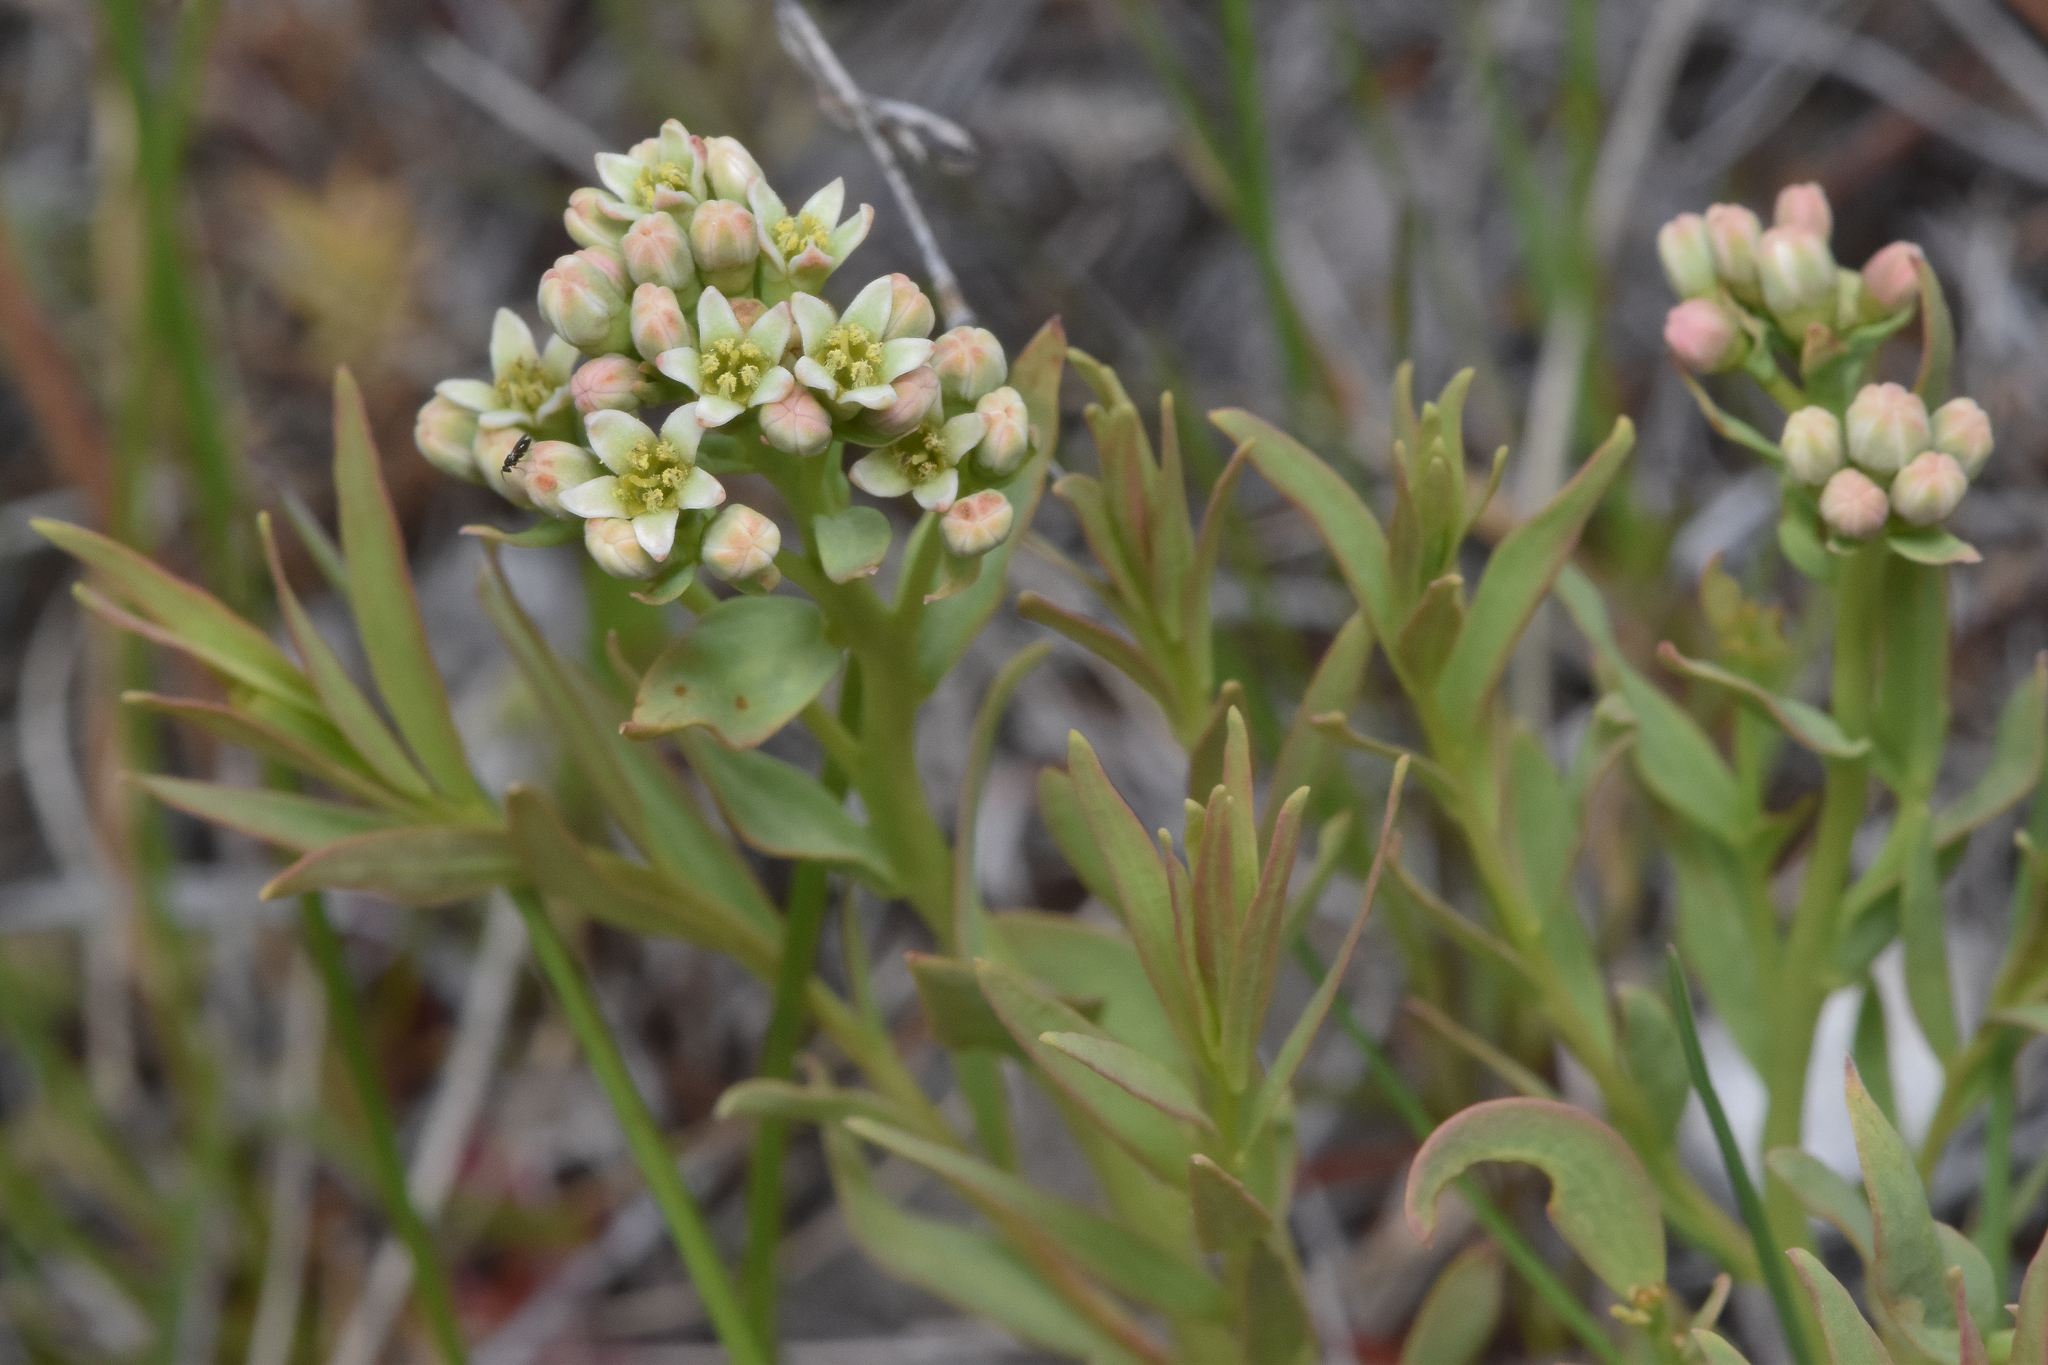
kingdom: Plantae
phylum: Tracheophyta
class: Magnoliopsida
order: Santalales
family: Comandraceae
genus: Comandra
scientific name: Comandra umbellata
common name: Bastard toadflax
